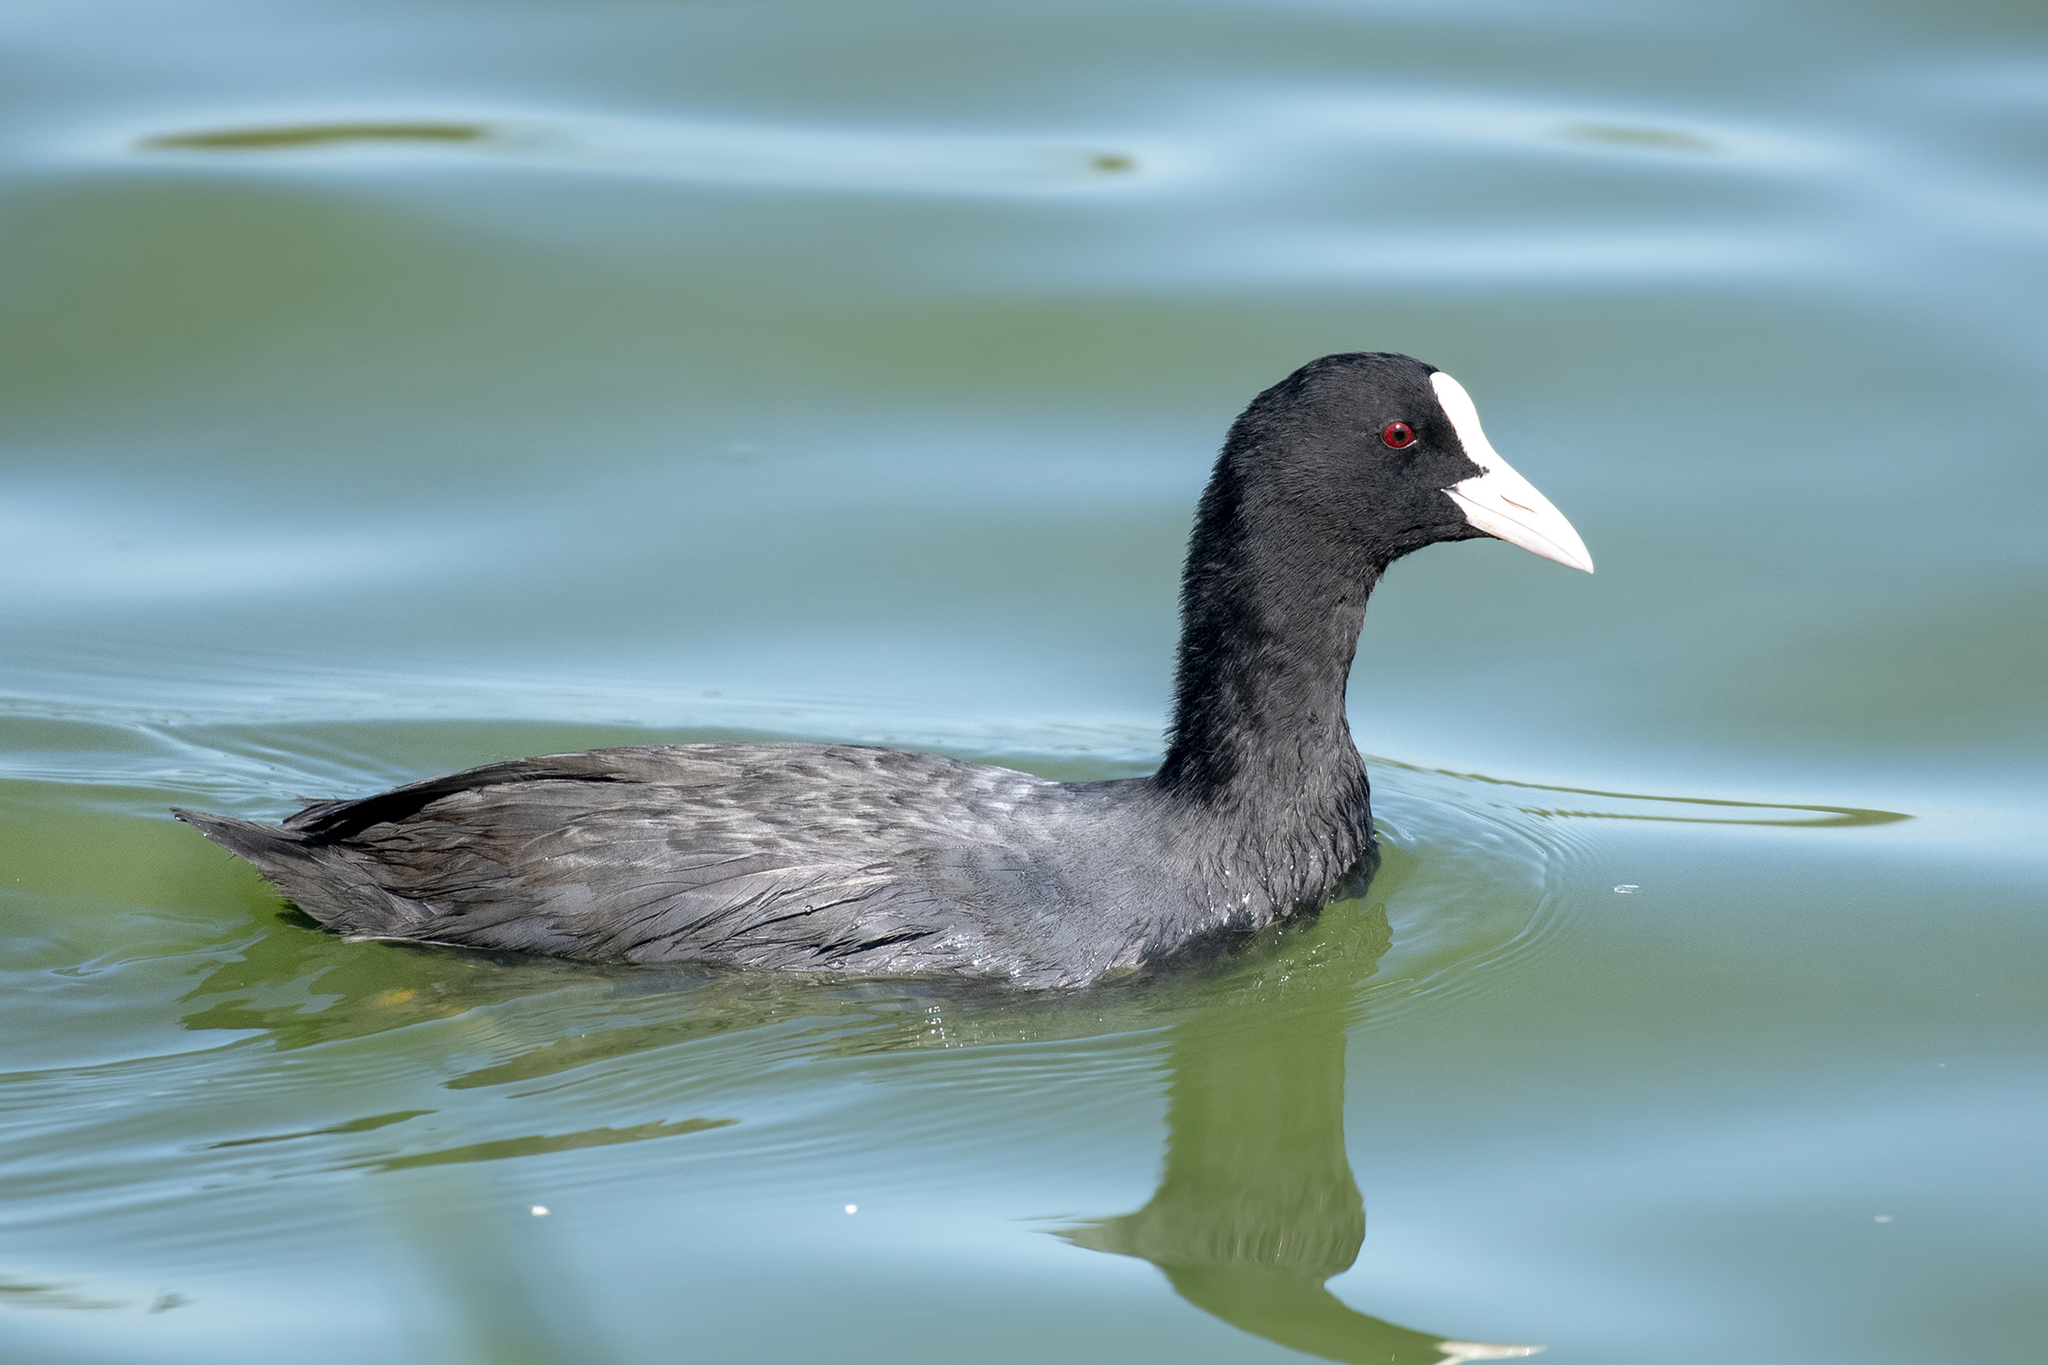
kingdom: Animalia
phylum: Chordata
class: Aves
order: Gruiformes
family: Rallidae
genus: Fulica
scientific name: Fulica atra
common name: Eurasian coot
